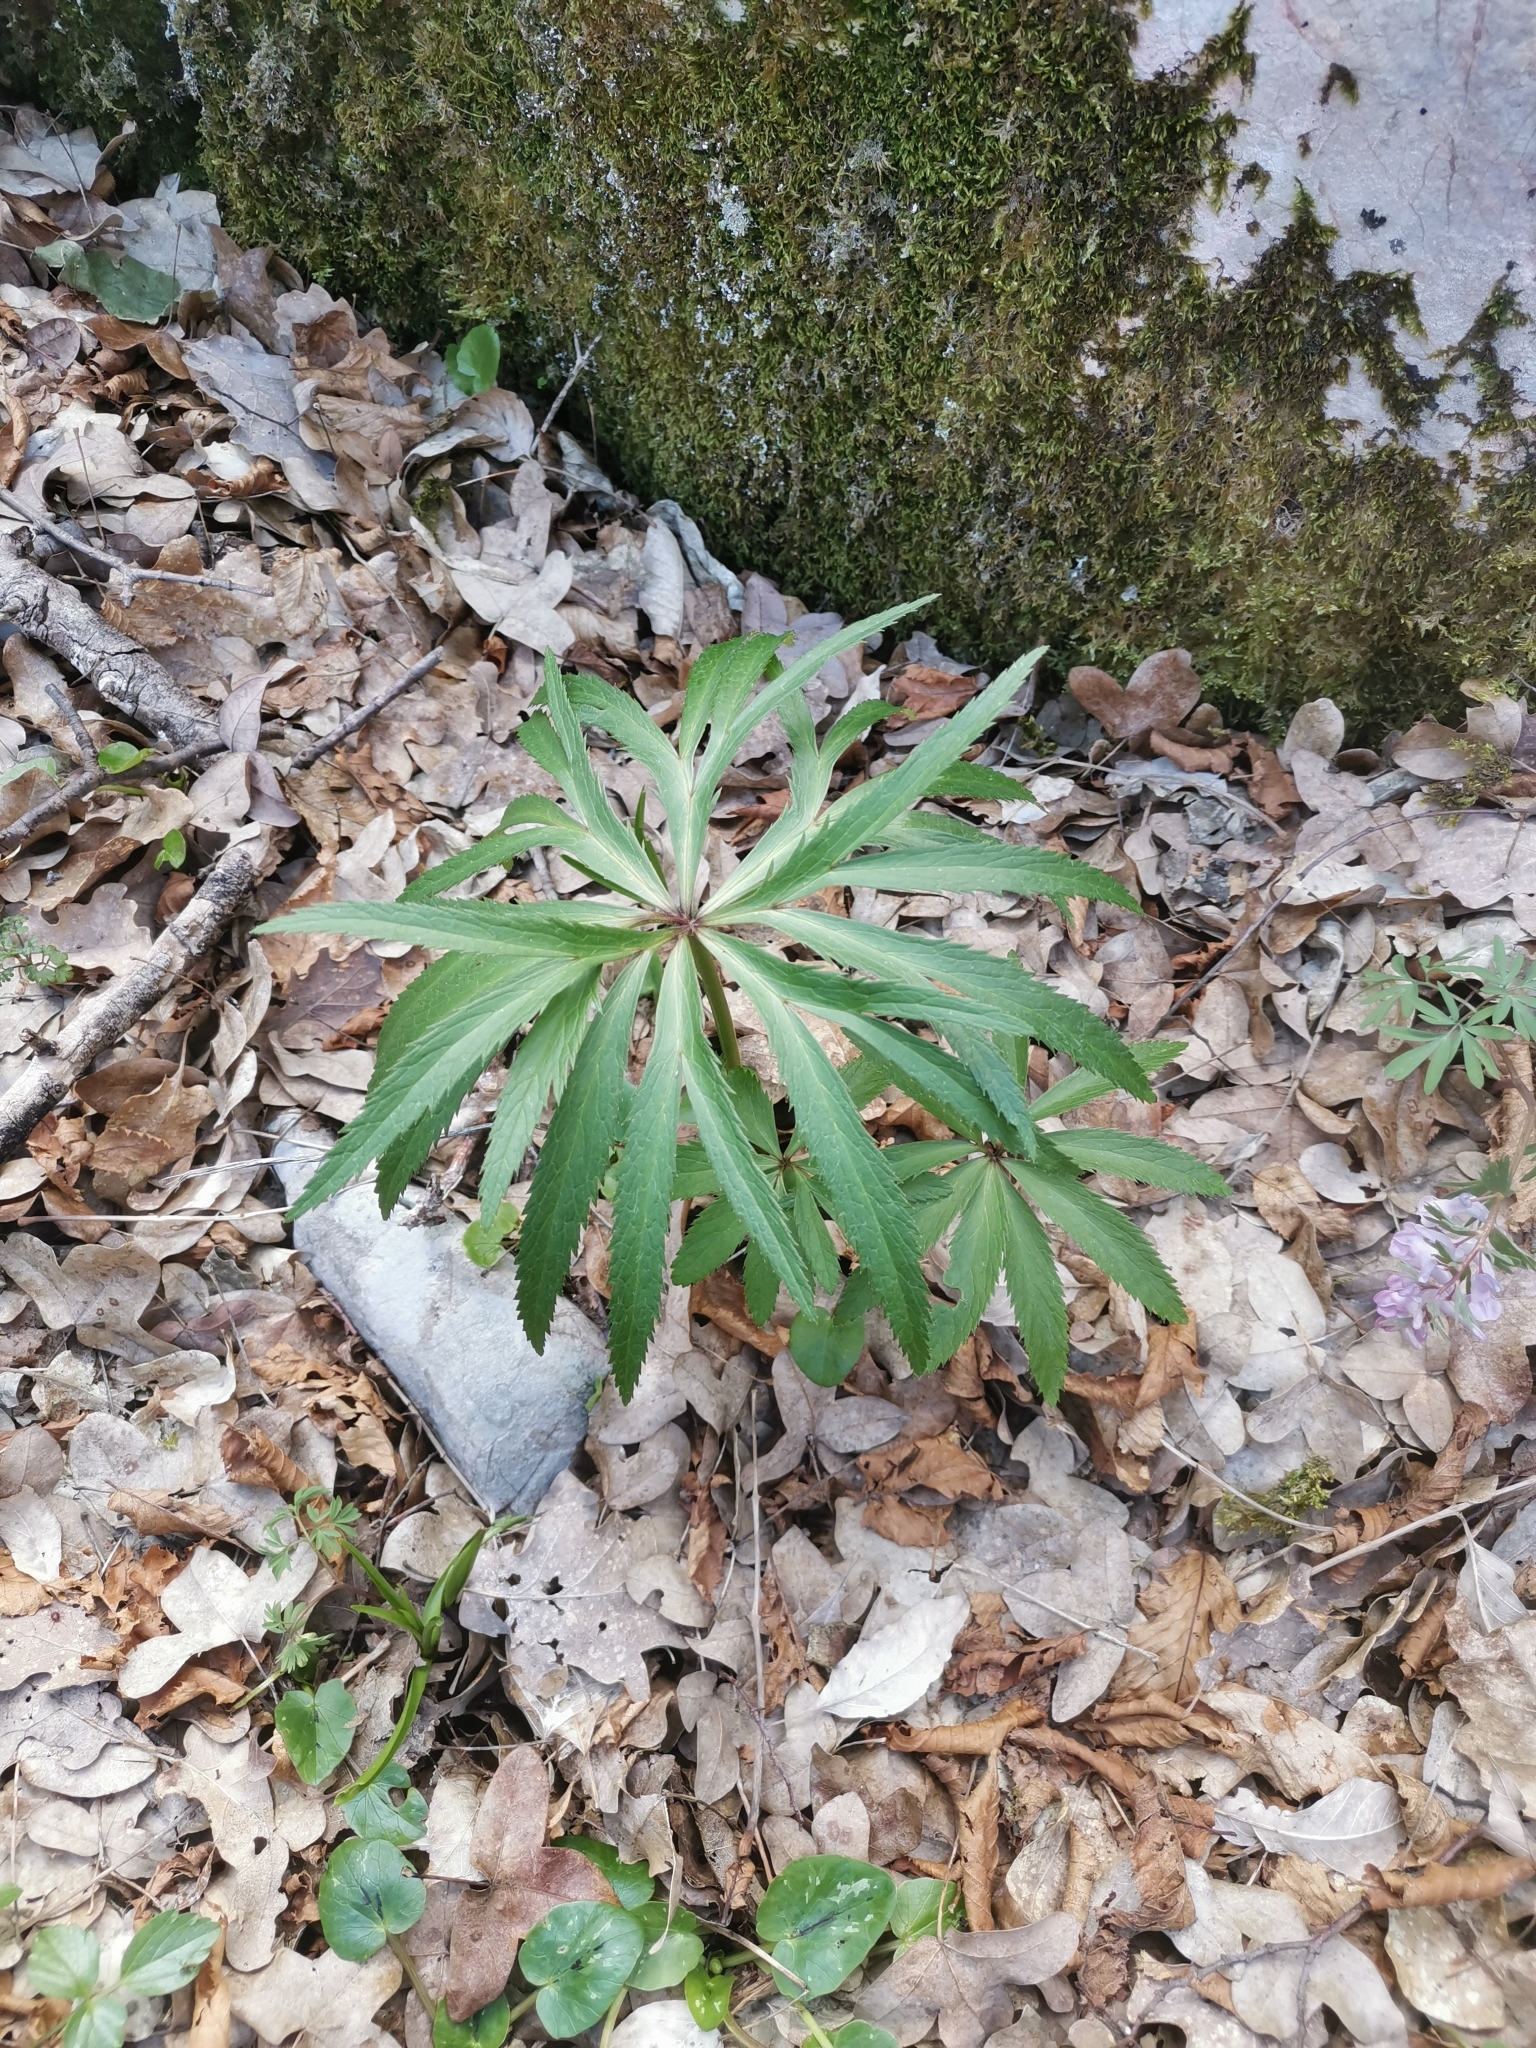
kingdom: Plantae
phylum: Tracheophyta
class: Magnoliopsida
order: Ranunculales
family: Ranunculaceae
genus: Helleborus
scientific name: Helleborus multifidus
